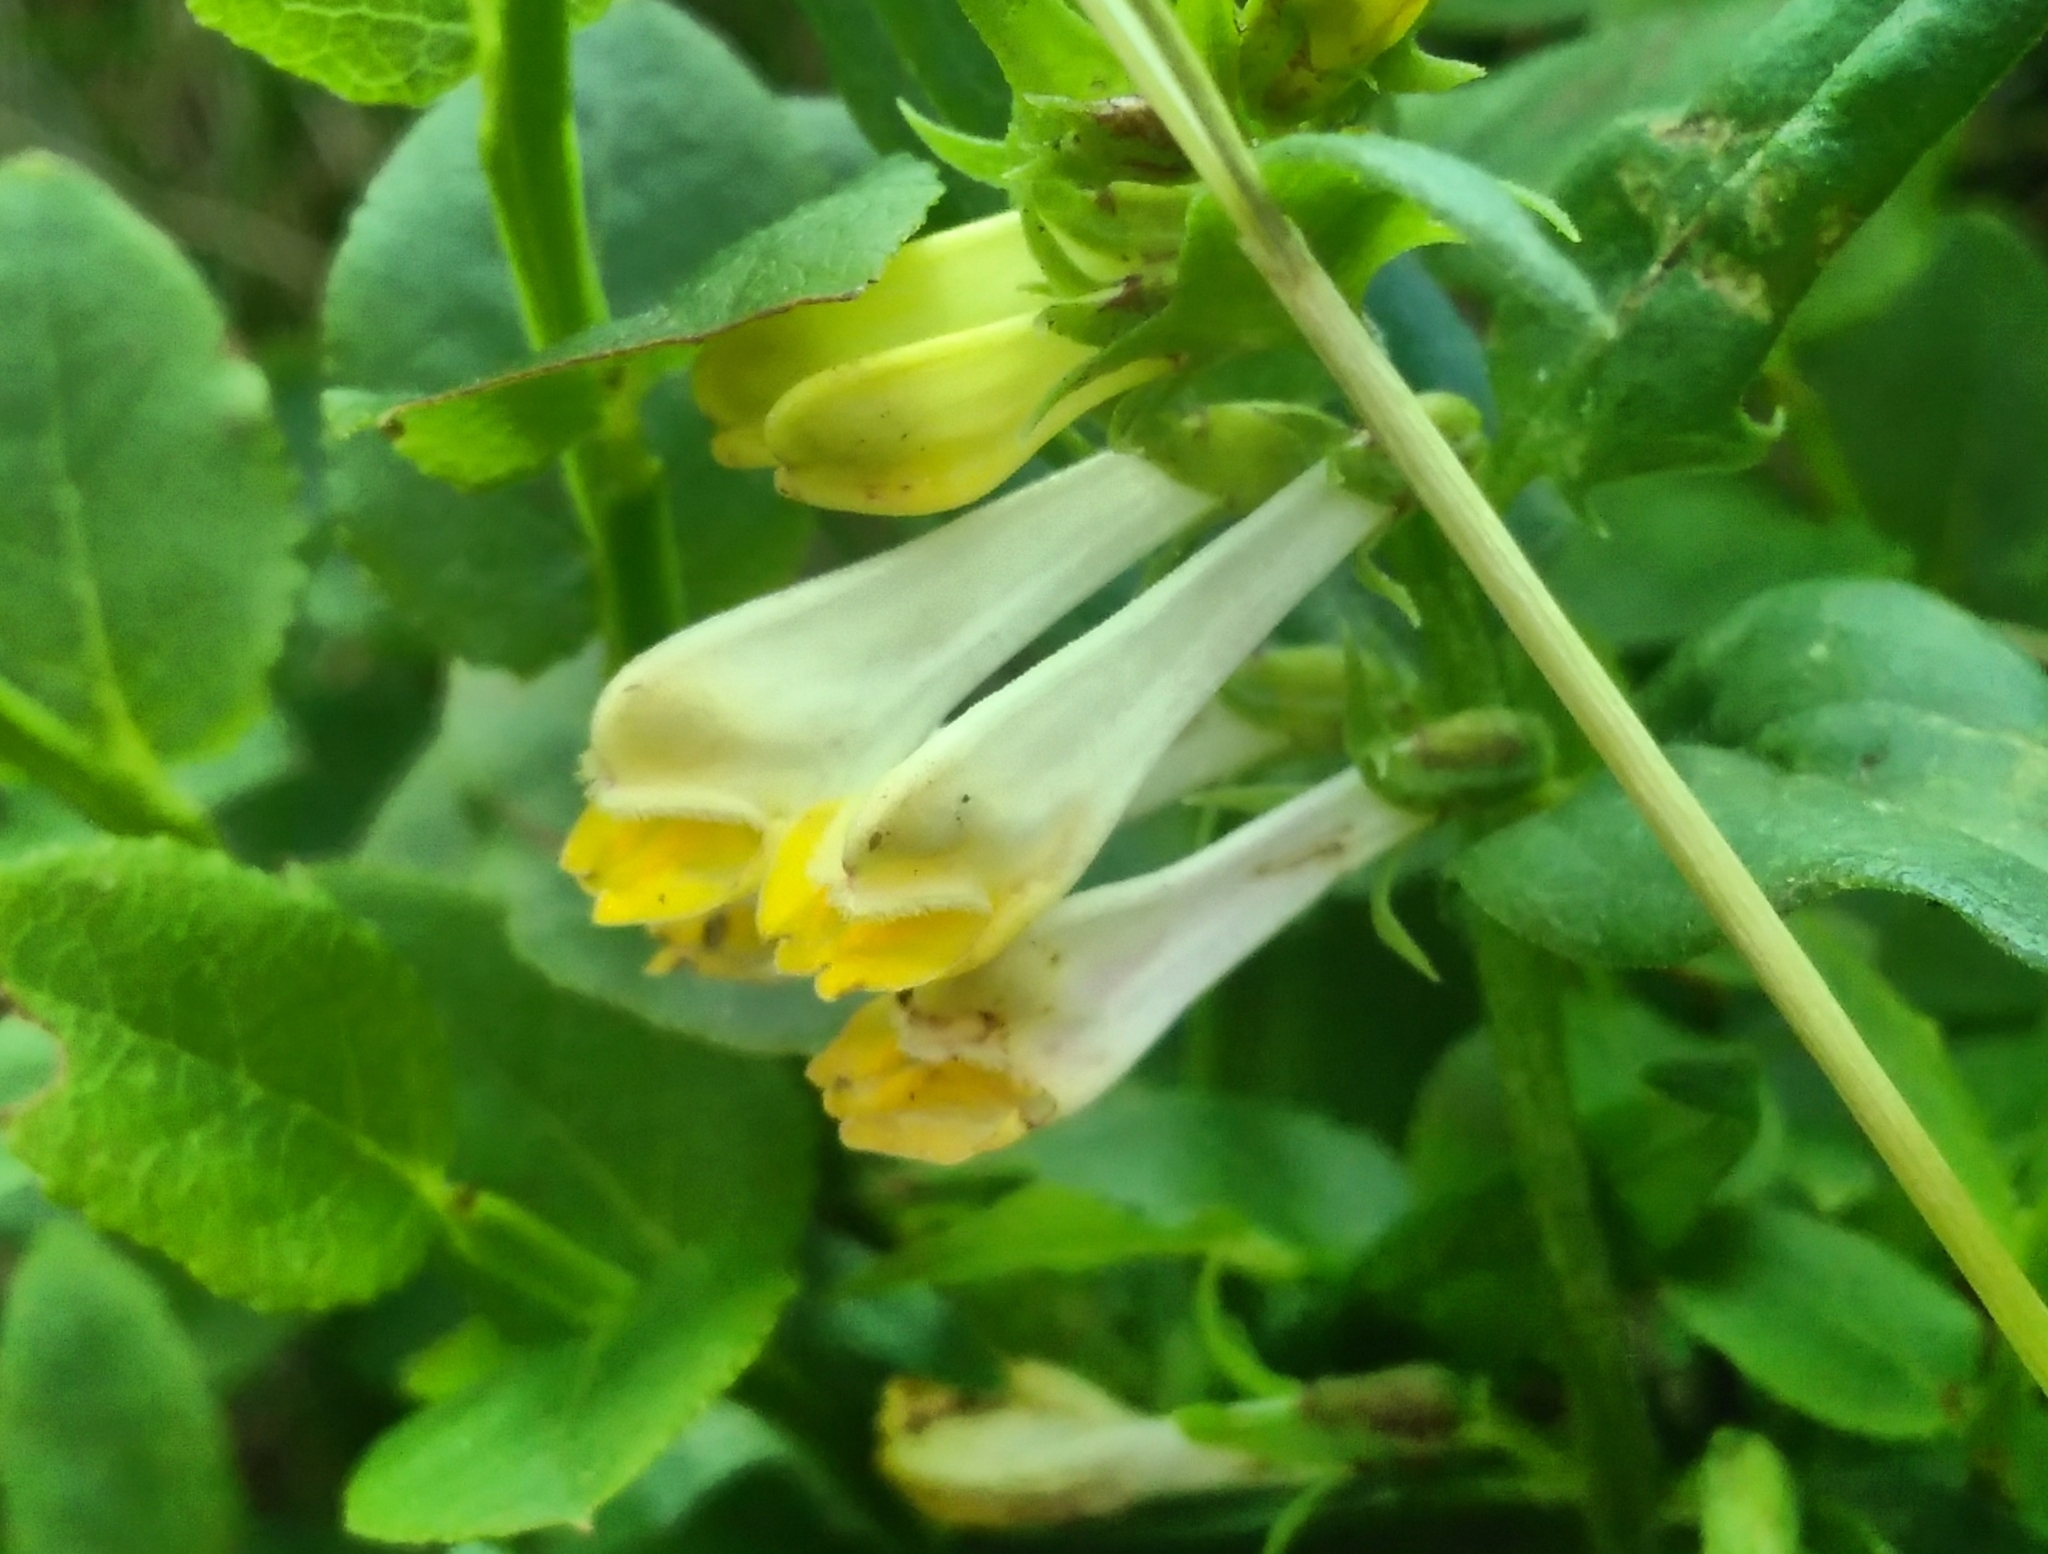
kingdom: Plantae
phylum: Tracheophyta
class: Magnoliopsida
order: Lamiales
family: Orobanchaceae
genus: Melampyrum
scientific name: Melampyrum pratense
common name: Common cow-wheat
